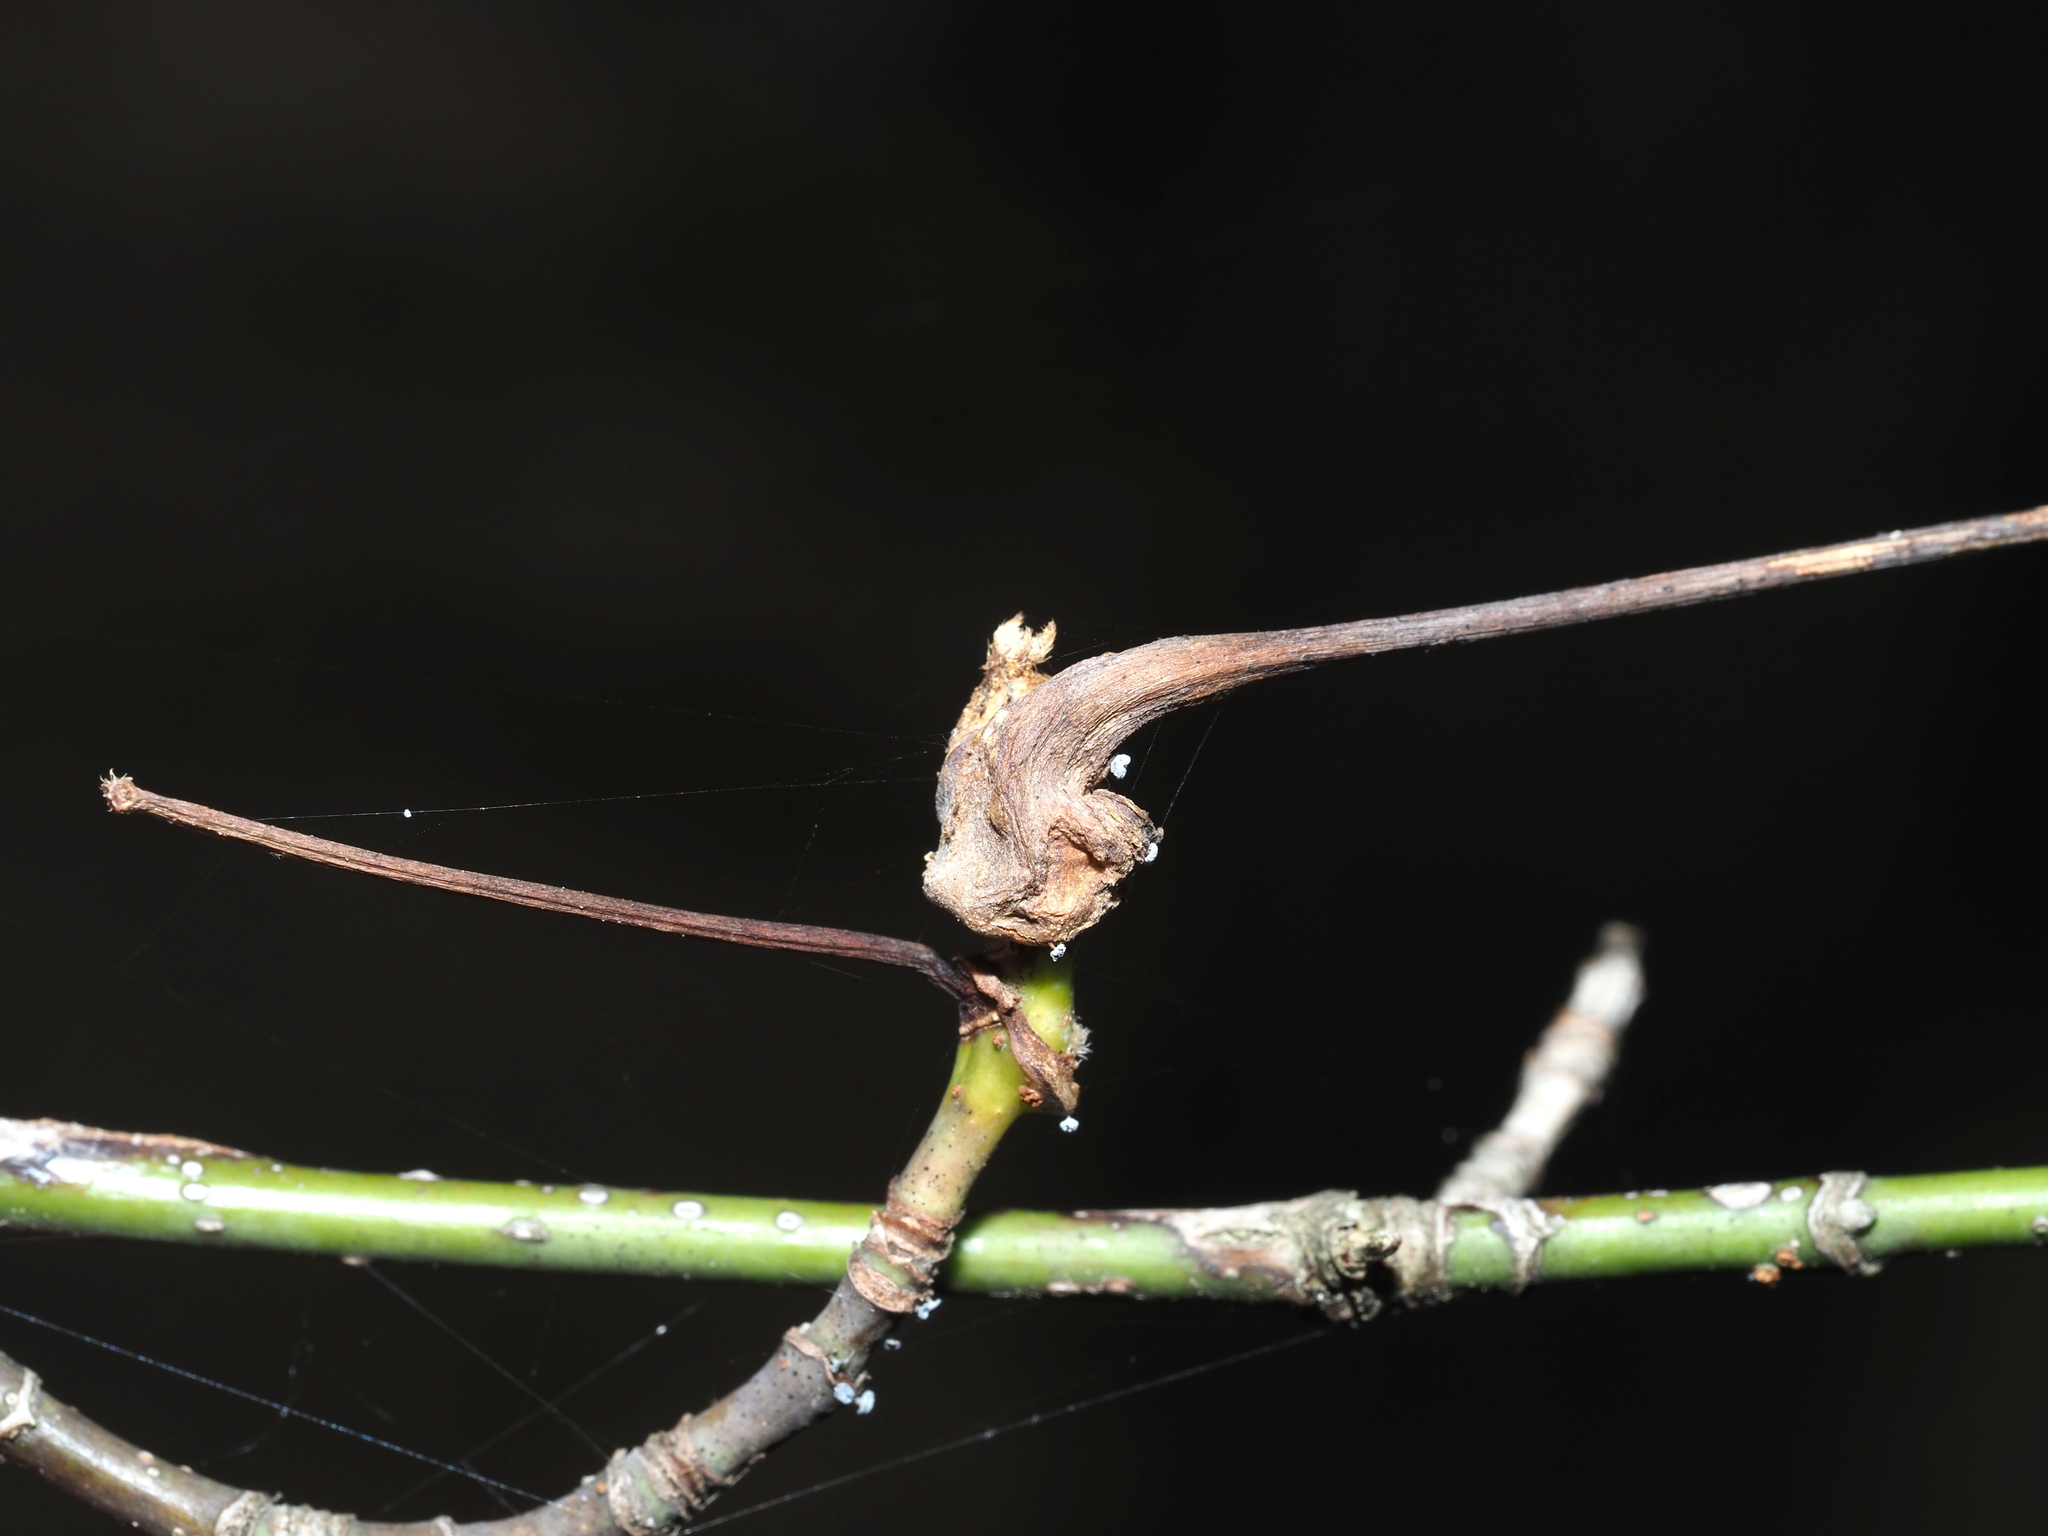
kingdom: Animalia
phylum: Arthropoda
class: Insecta
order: Diptera
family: Cecidomyiidae
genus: Contarinia
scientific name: Contarinia negundinis
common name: Boxelder budgall midge
